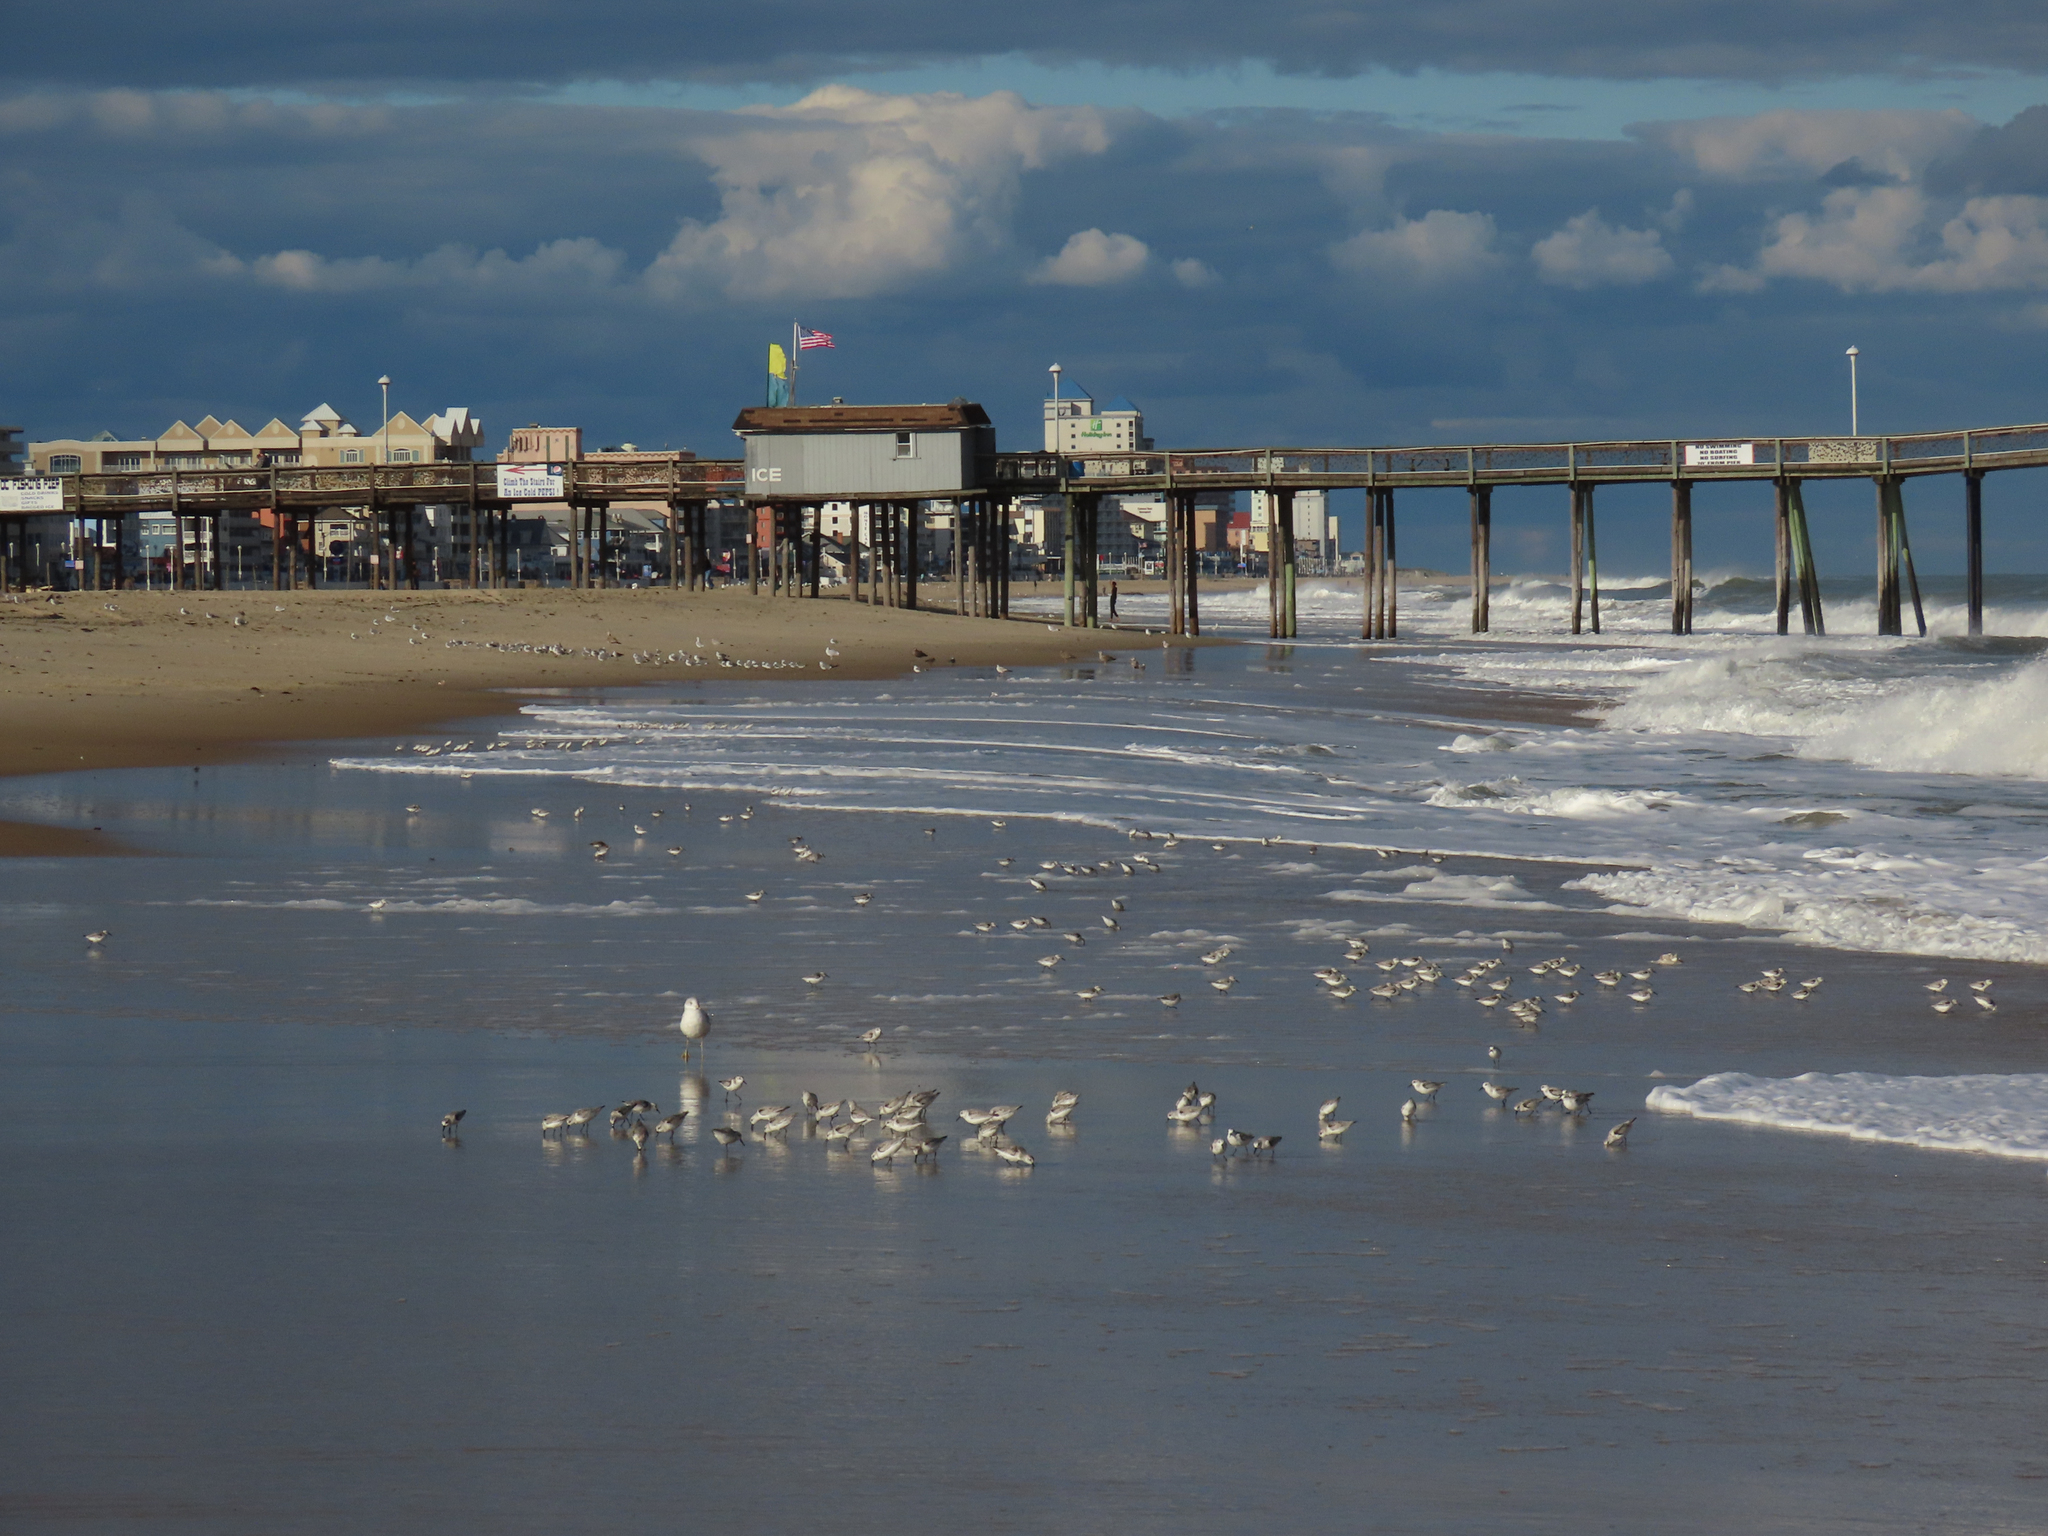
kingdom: Animalia
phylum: Chordata
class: Aves
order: Charadriiformes
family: Scolopacidae
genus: Calidris
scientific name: Calidris alba
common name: Sanderling
